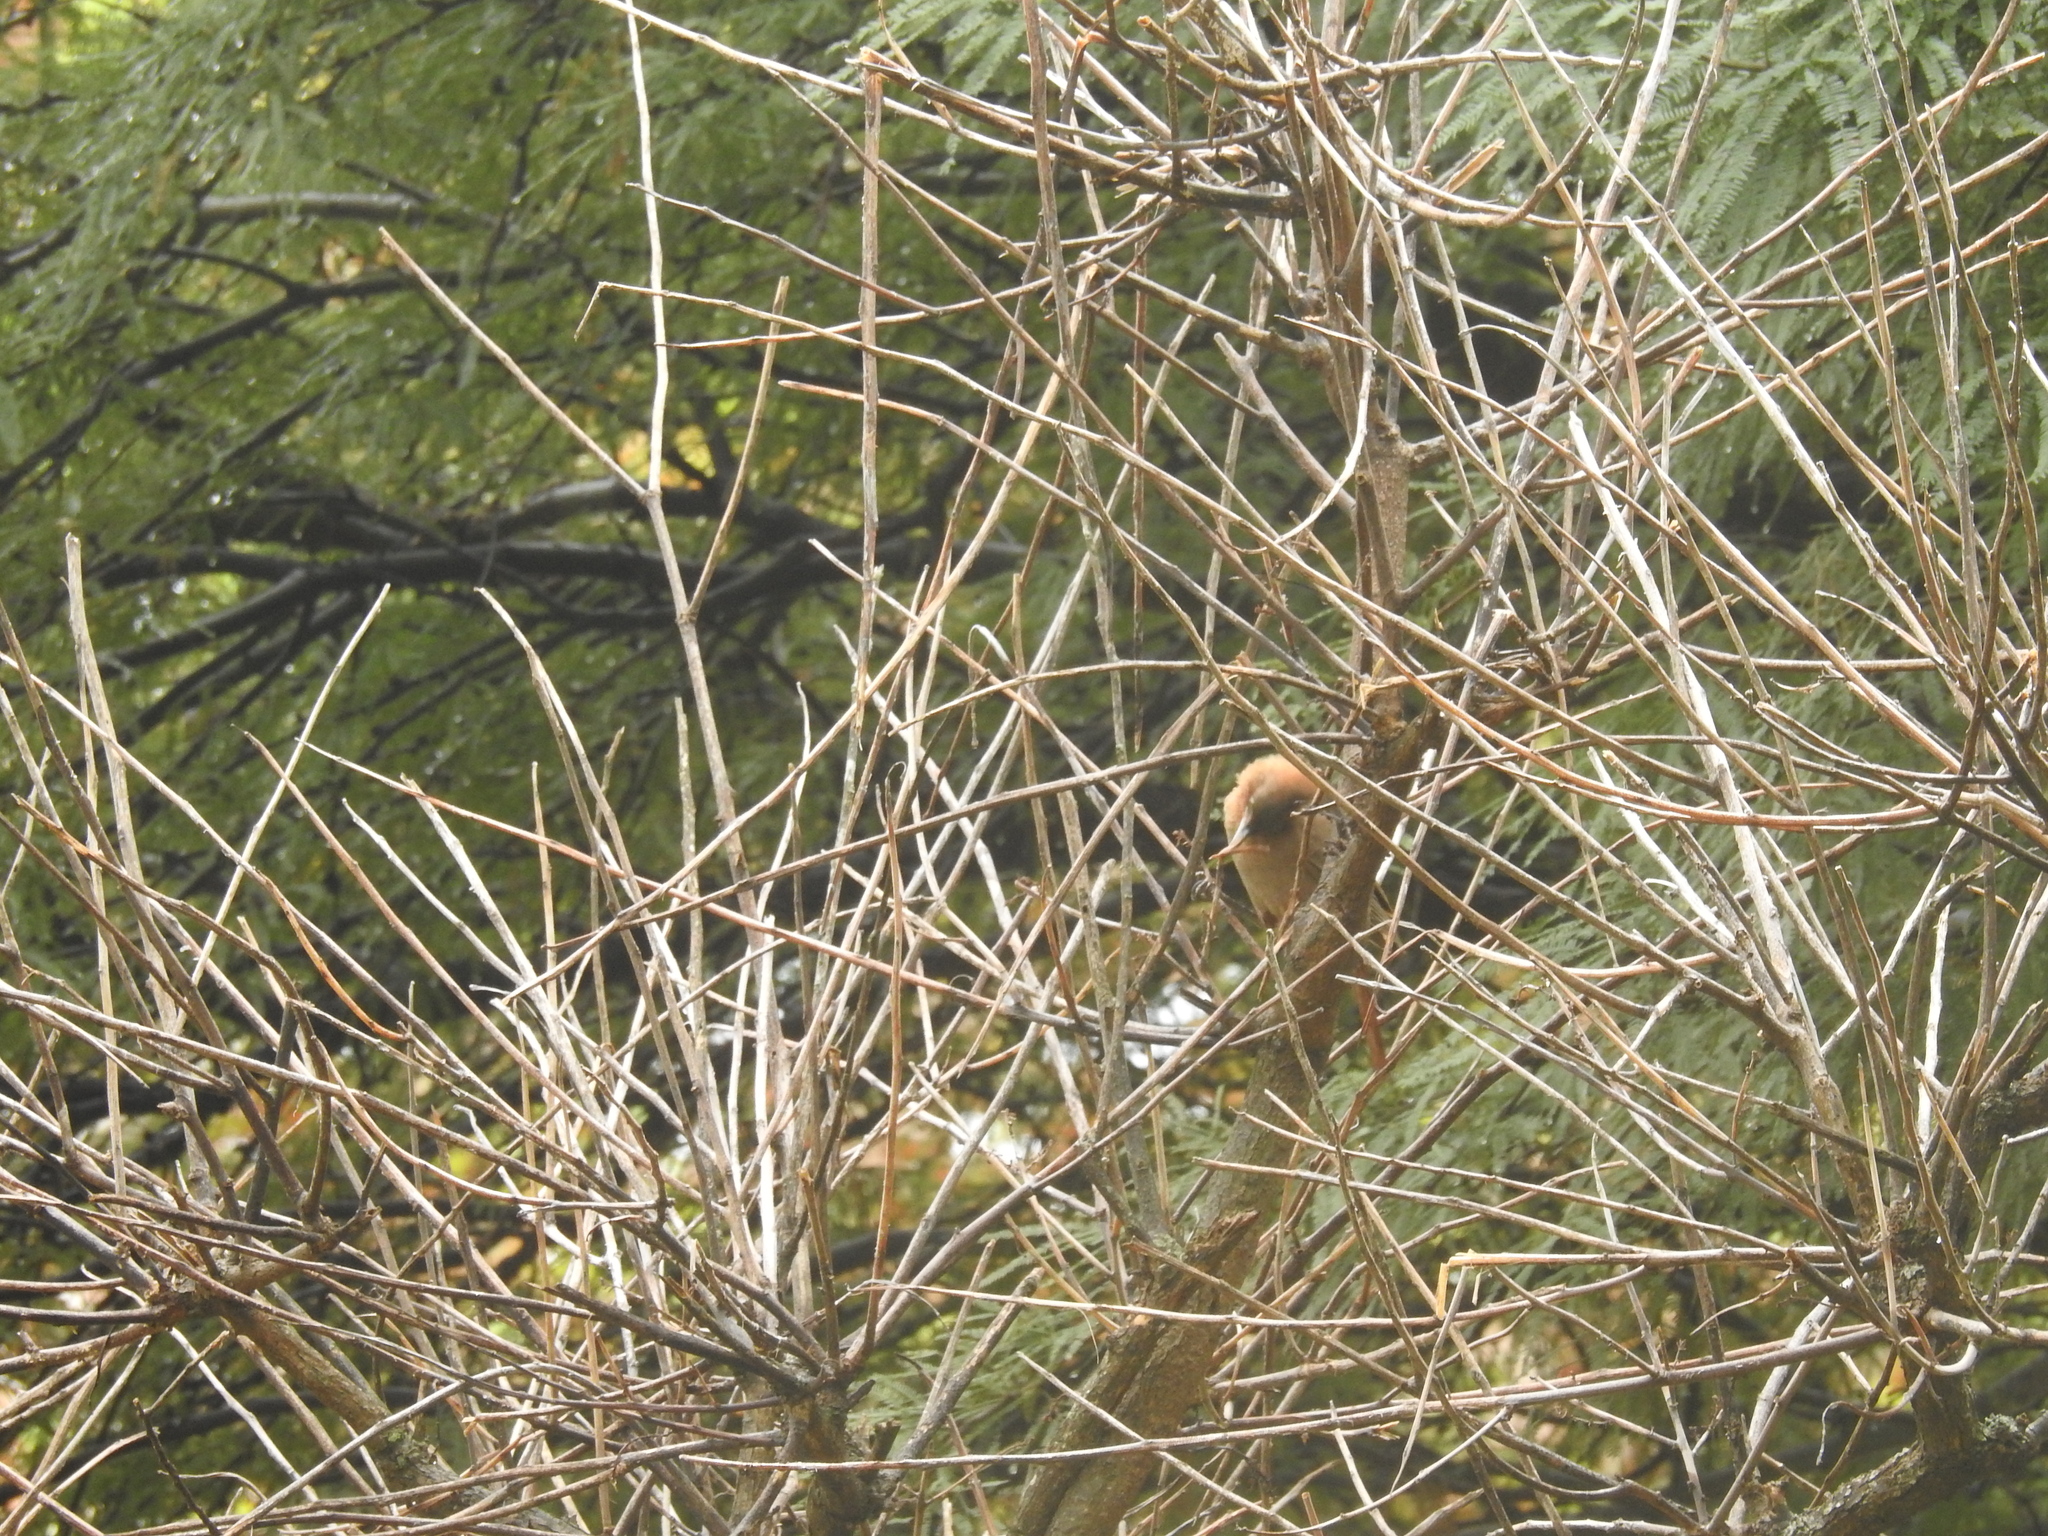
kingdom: Animalia
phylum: Chordata
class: Aves
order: Passeriformes
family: Furnariidae
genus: Pseudoseisura
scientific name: Pseudoseisura lophotes
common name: Brown cacholote
